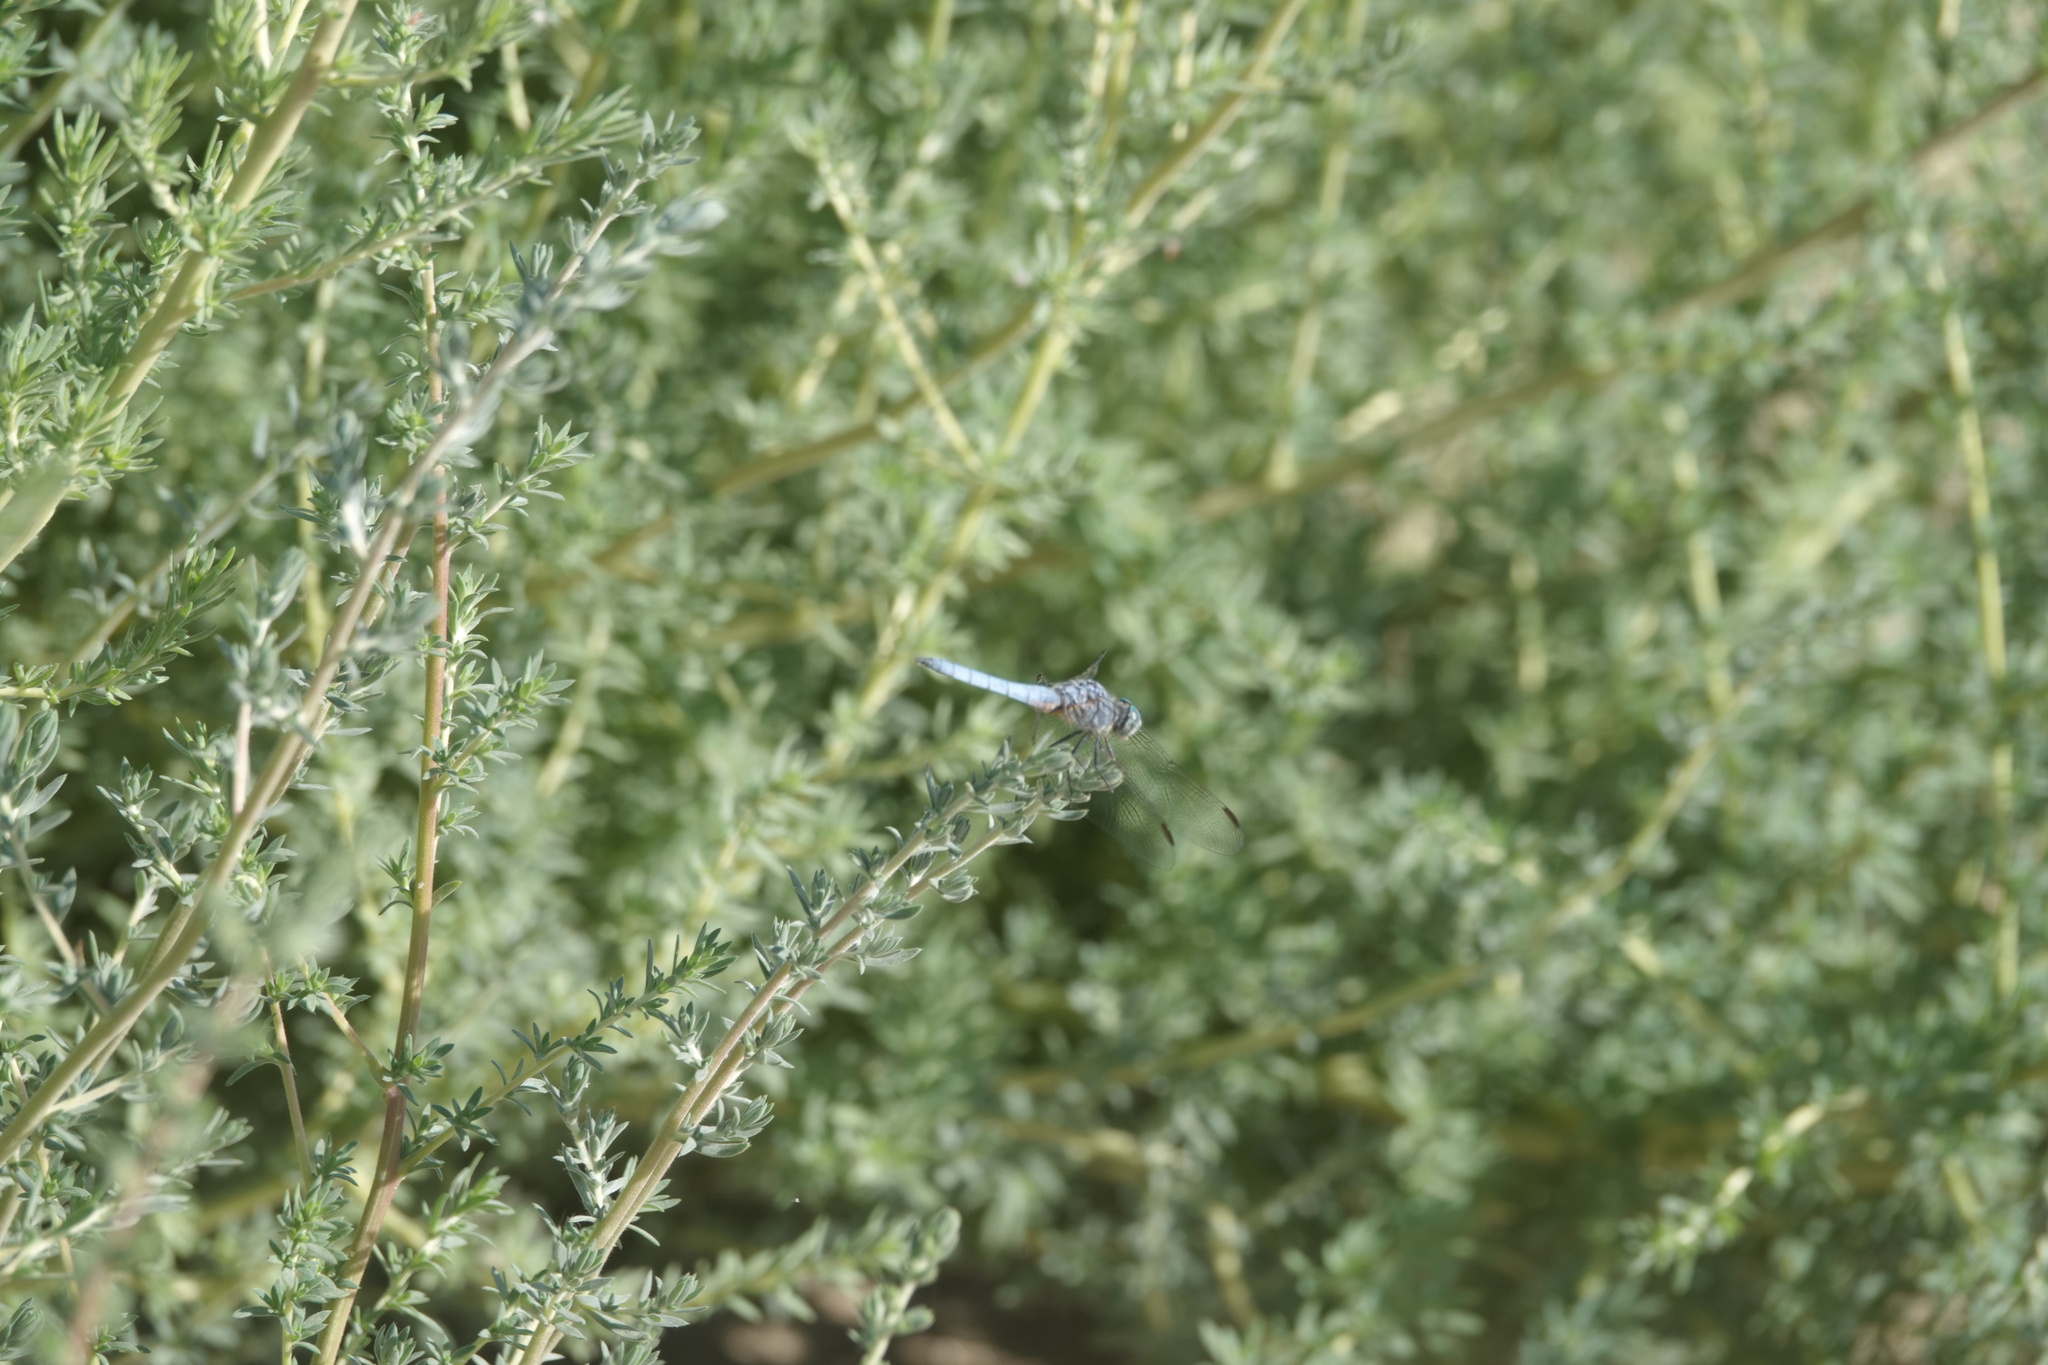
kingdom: Animalia
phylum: Arthropoda
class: Insecta
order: Odonata
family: Libellulidae
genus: Pachydiplax
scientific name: Pachydiplax longipennis
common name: Blue dasher
